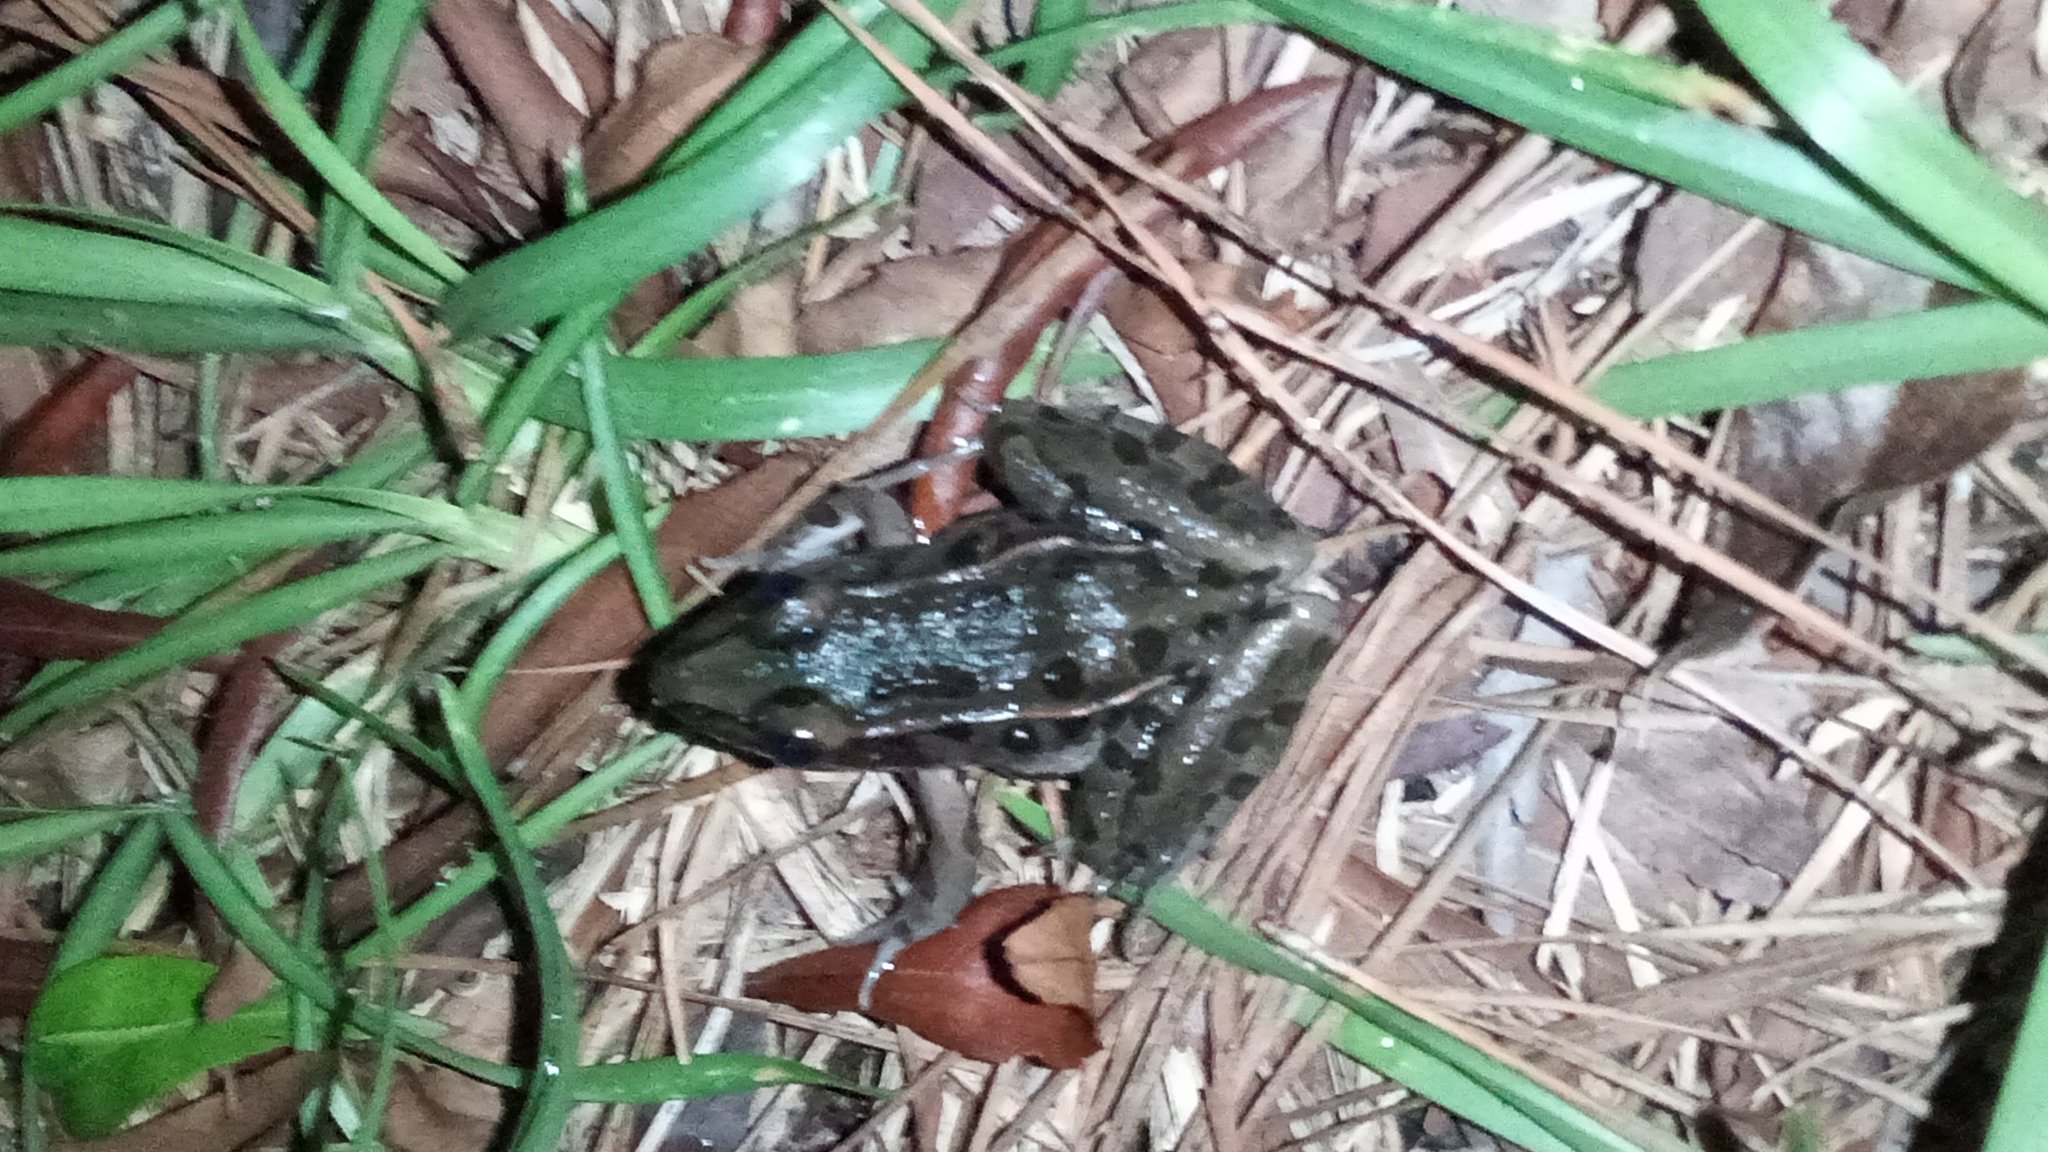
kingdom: Animalia
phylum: Chordata
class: Amphibia
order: Anura
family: Ranidae
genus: Lithobates
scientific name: Lithobates sphenocephalus
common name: Southern leopard frog
